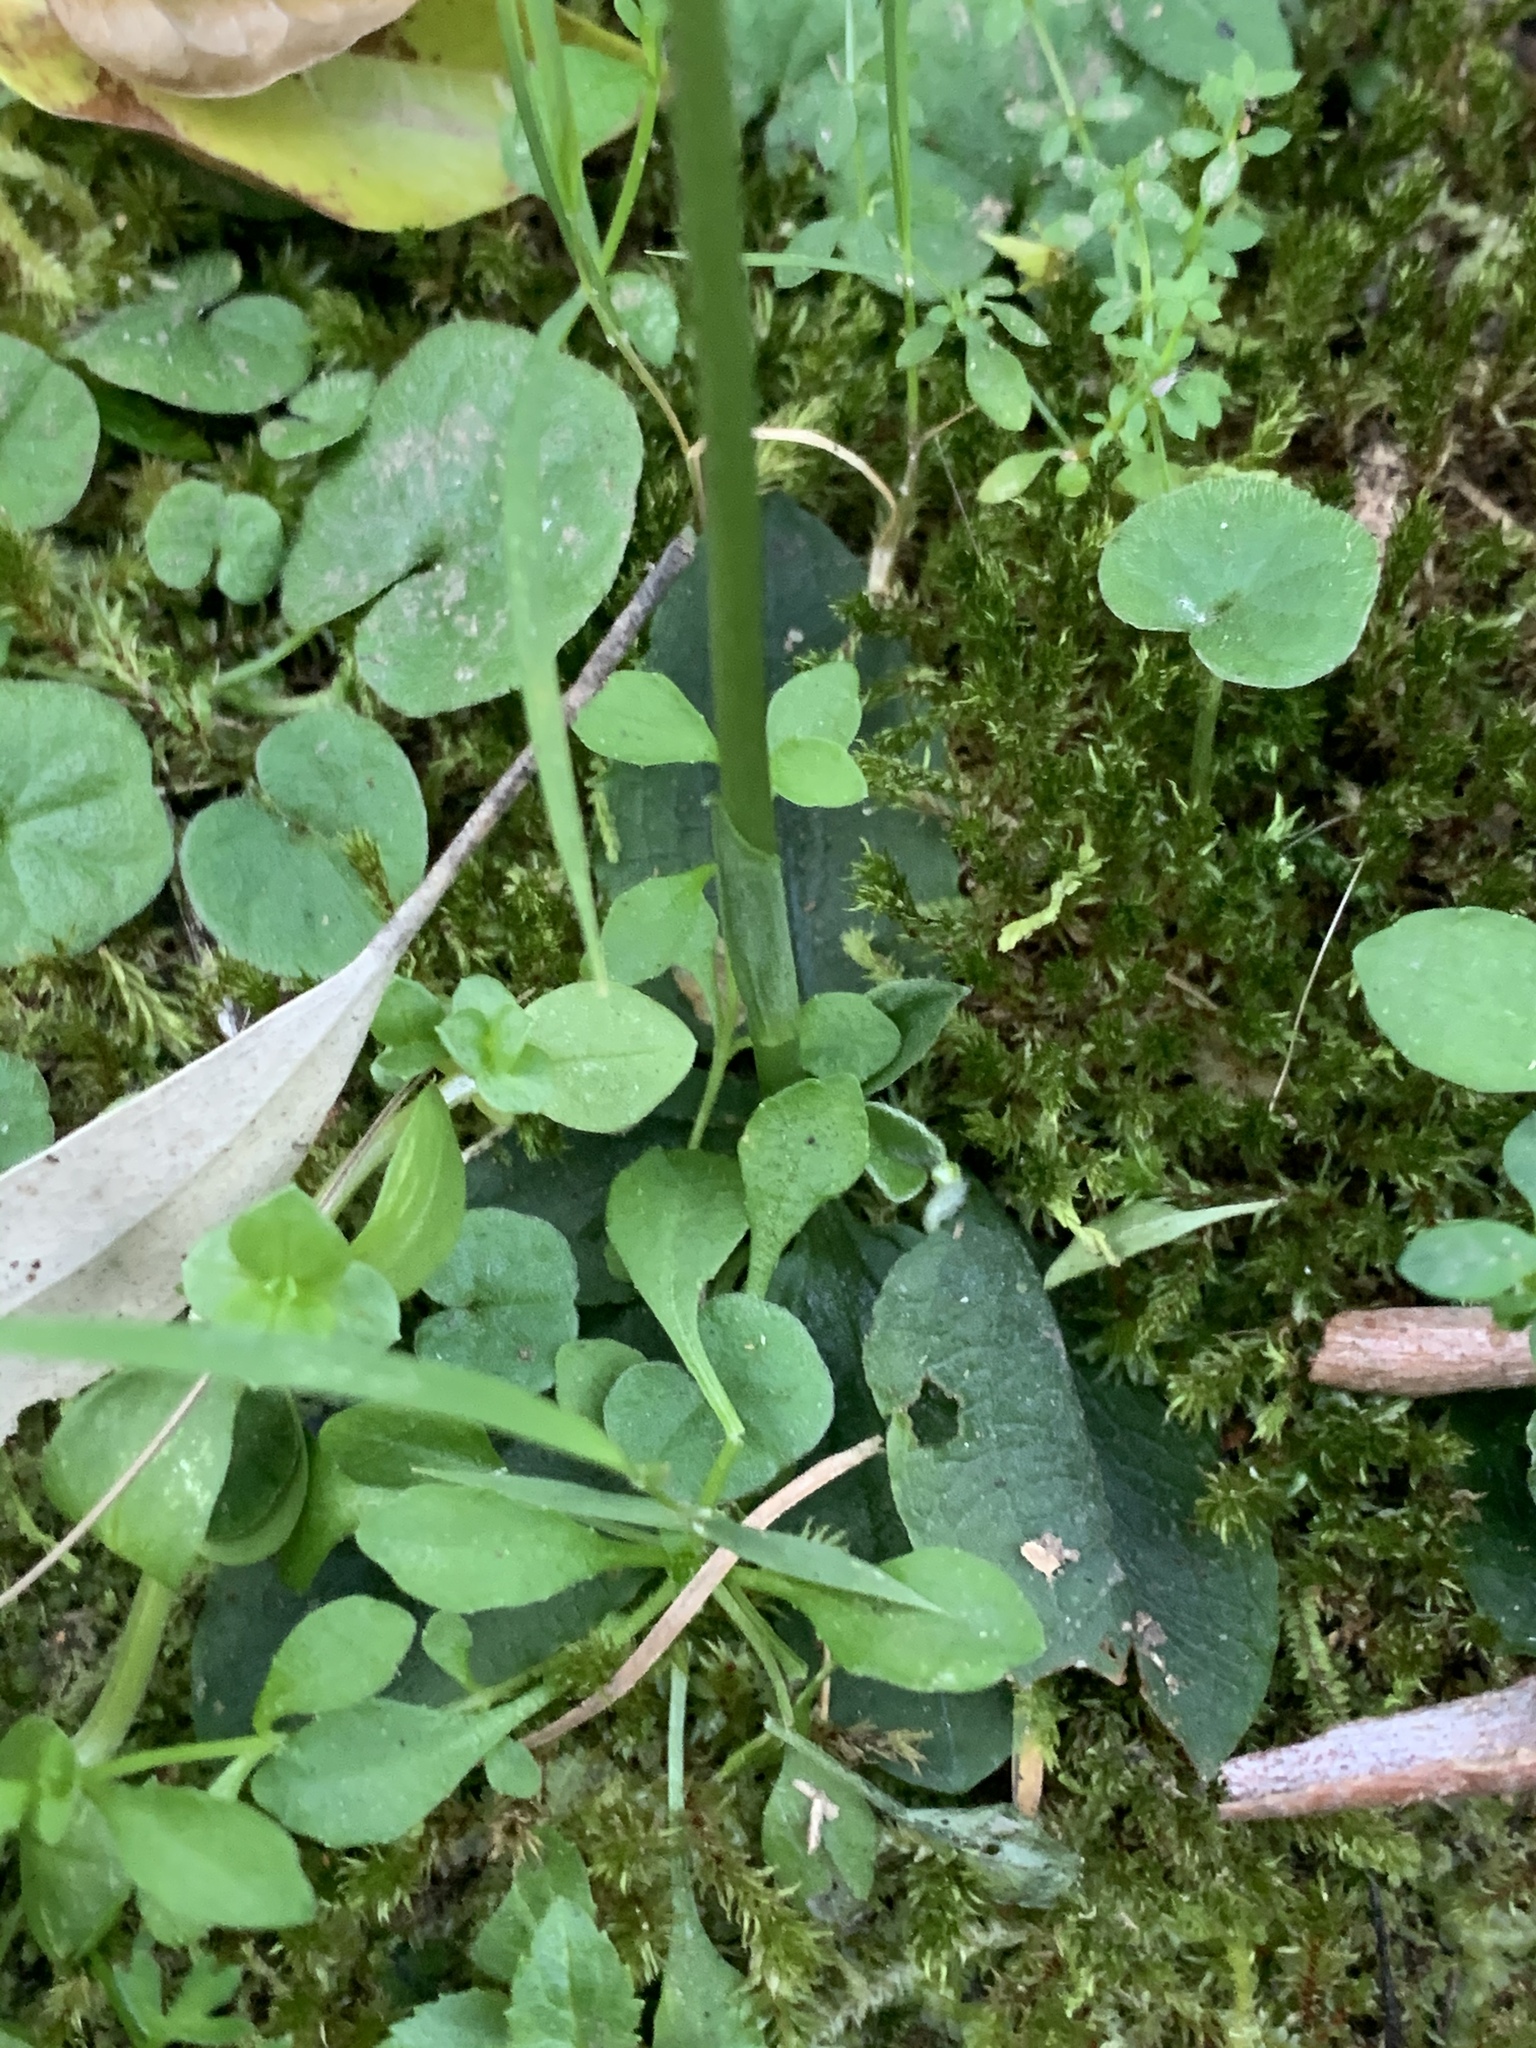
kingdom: Plantae
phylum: Tracheophyta
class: Liliopsida
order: Asparagales
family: Orchidaceae
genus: Pterostylis
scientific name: Pterostylis erecta
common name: Upright maroonhood
